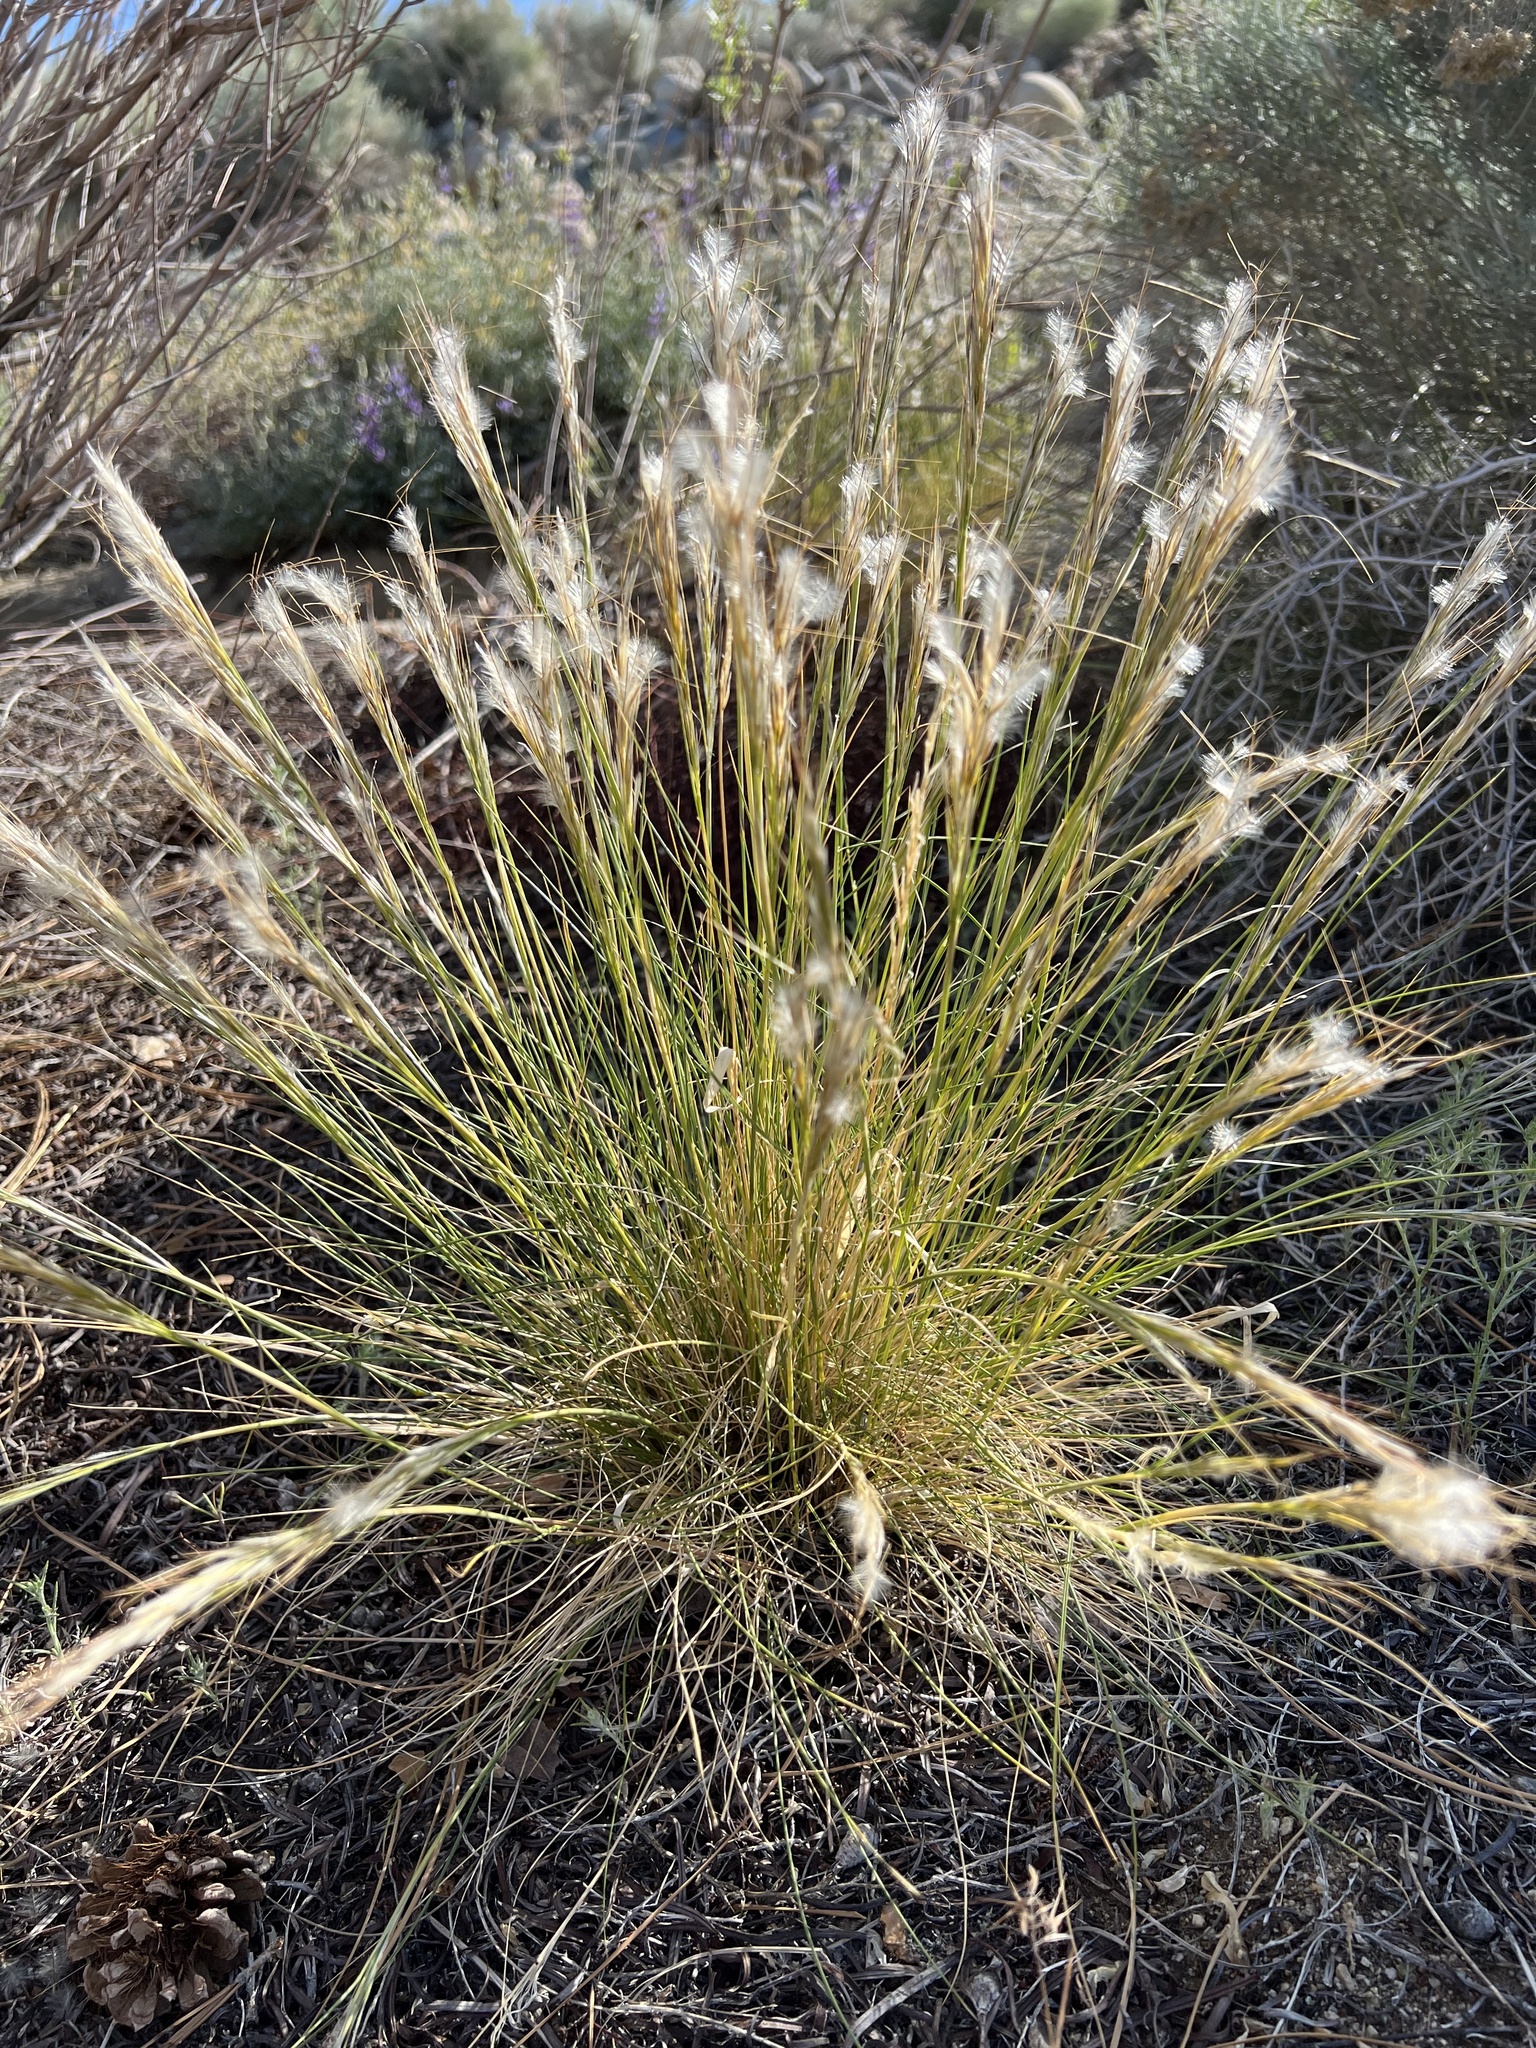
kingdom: Plantae
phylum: Tracheophyta
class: Liliopsida
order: Poales
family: Poaceae
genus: Pappostipa
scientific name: Pappostipa speciosa
